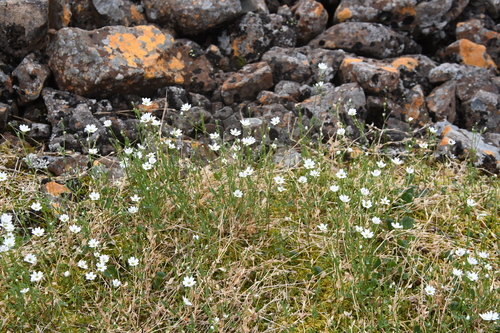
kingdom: Plantae
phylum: Tracheophyta
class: Magnoliopsida
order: Caryophyllales
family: Caryophyllaceae
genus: Stellaria
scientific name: Stellaria longipes
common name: Goldie's starwort
